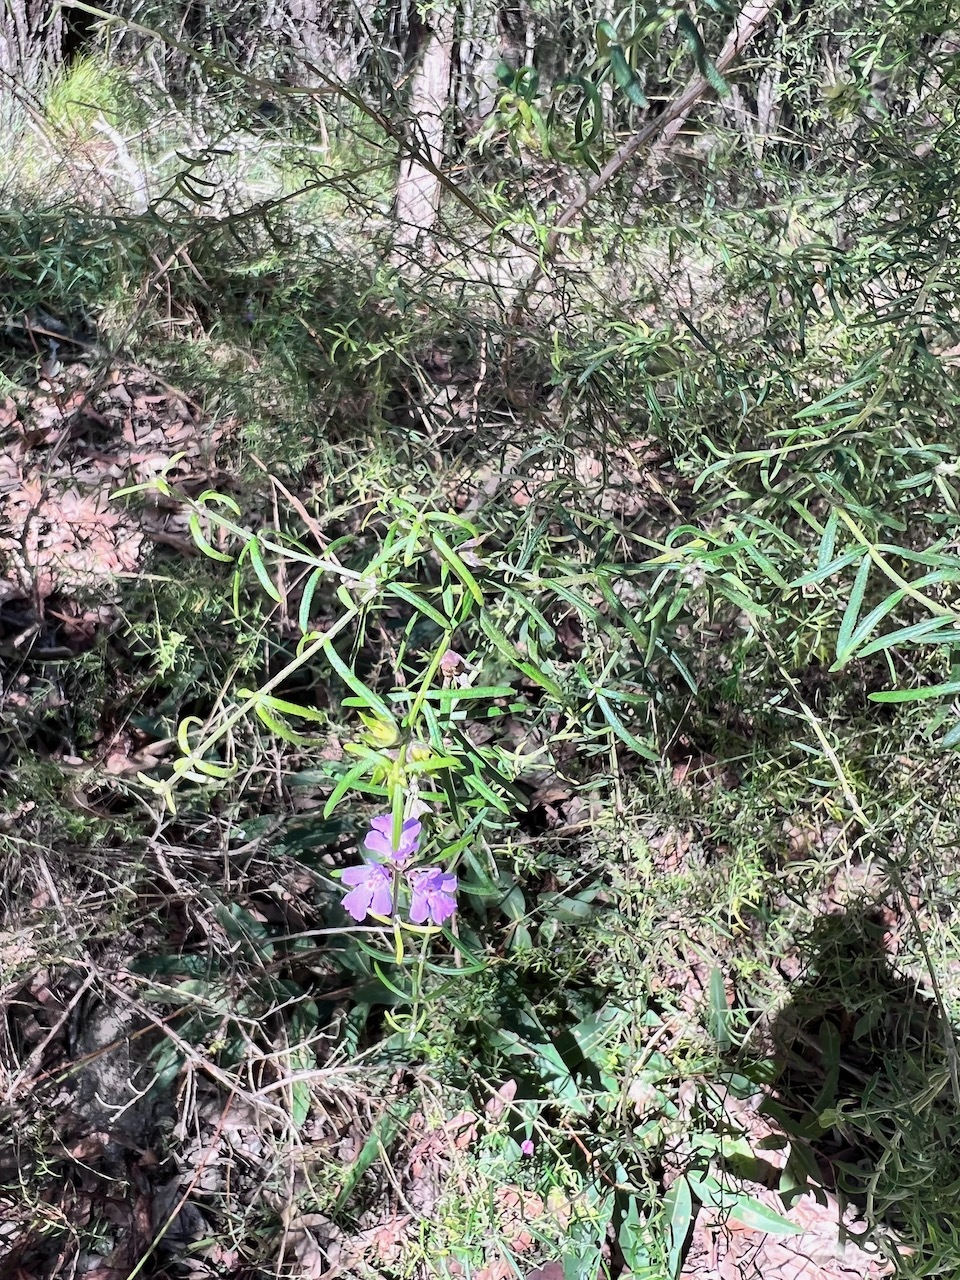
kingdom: Plantae
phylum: Tracheophyta
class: Magnoliopsida
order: Lamiales
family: Lamiaceae
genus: Westringia
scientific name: Westringia eremicola
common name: Slender western-rosemary
